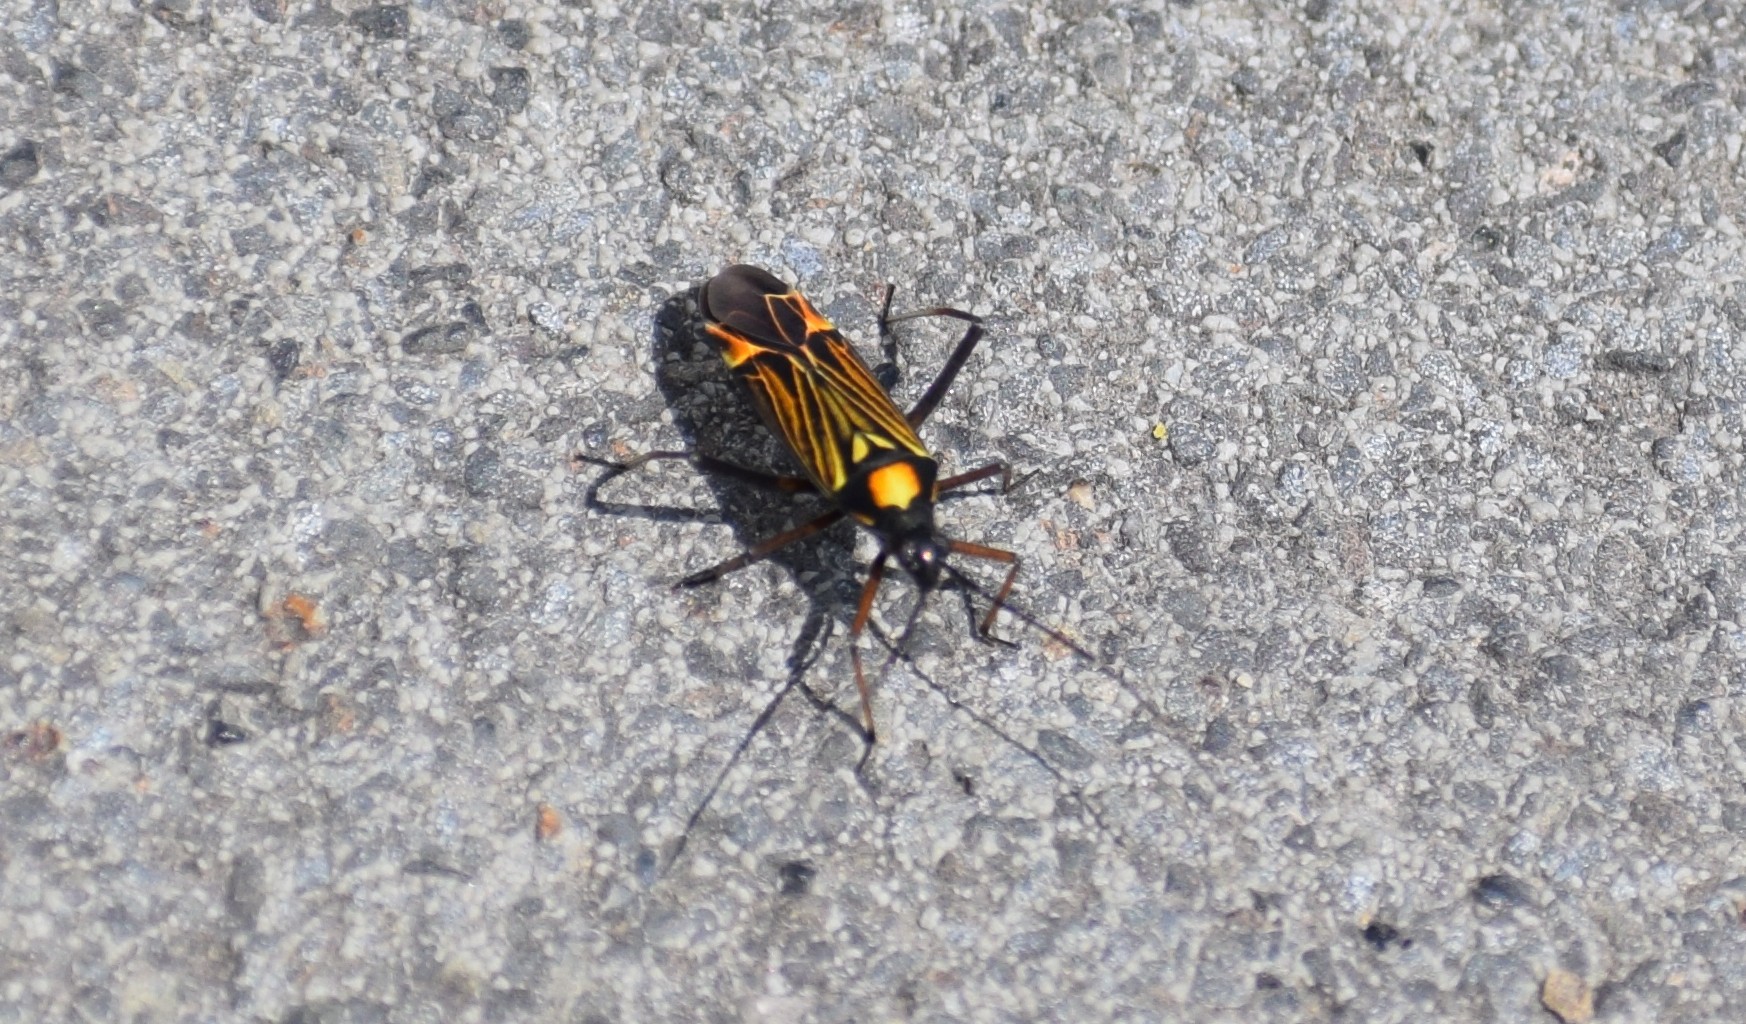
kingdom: Animalia
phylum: Arthropoda
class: Insecta
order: Hemiptera
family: Miridae
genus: Miris
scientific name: Miris striatus
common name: Fine streaked bugkin
